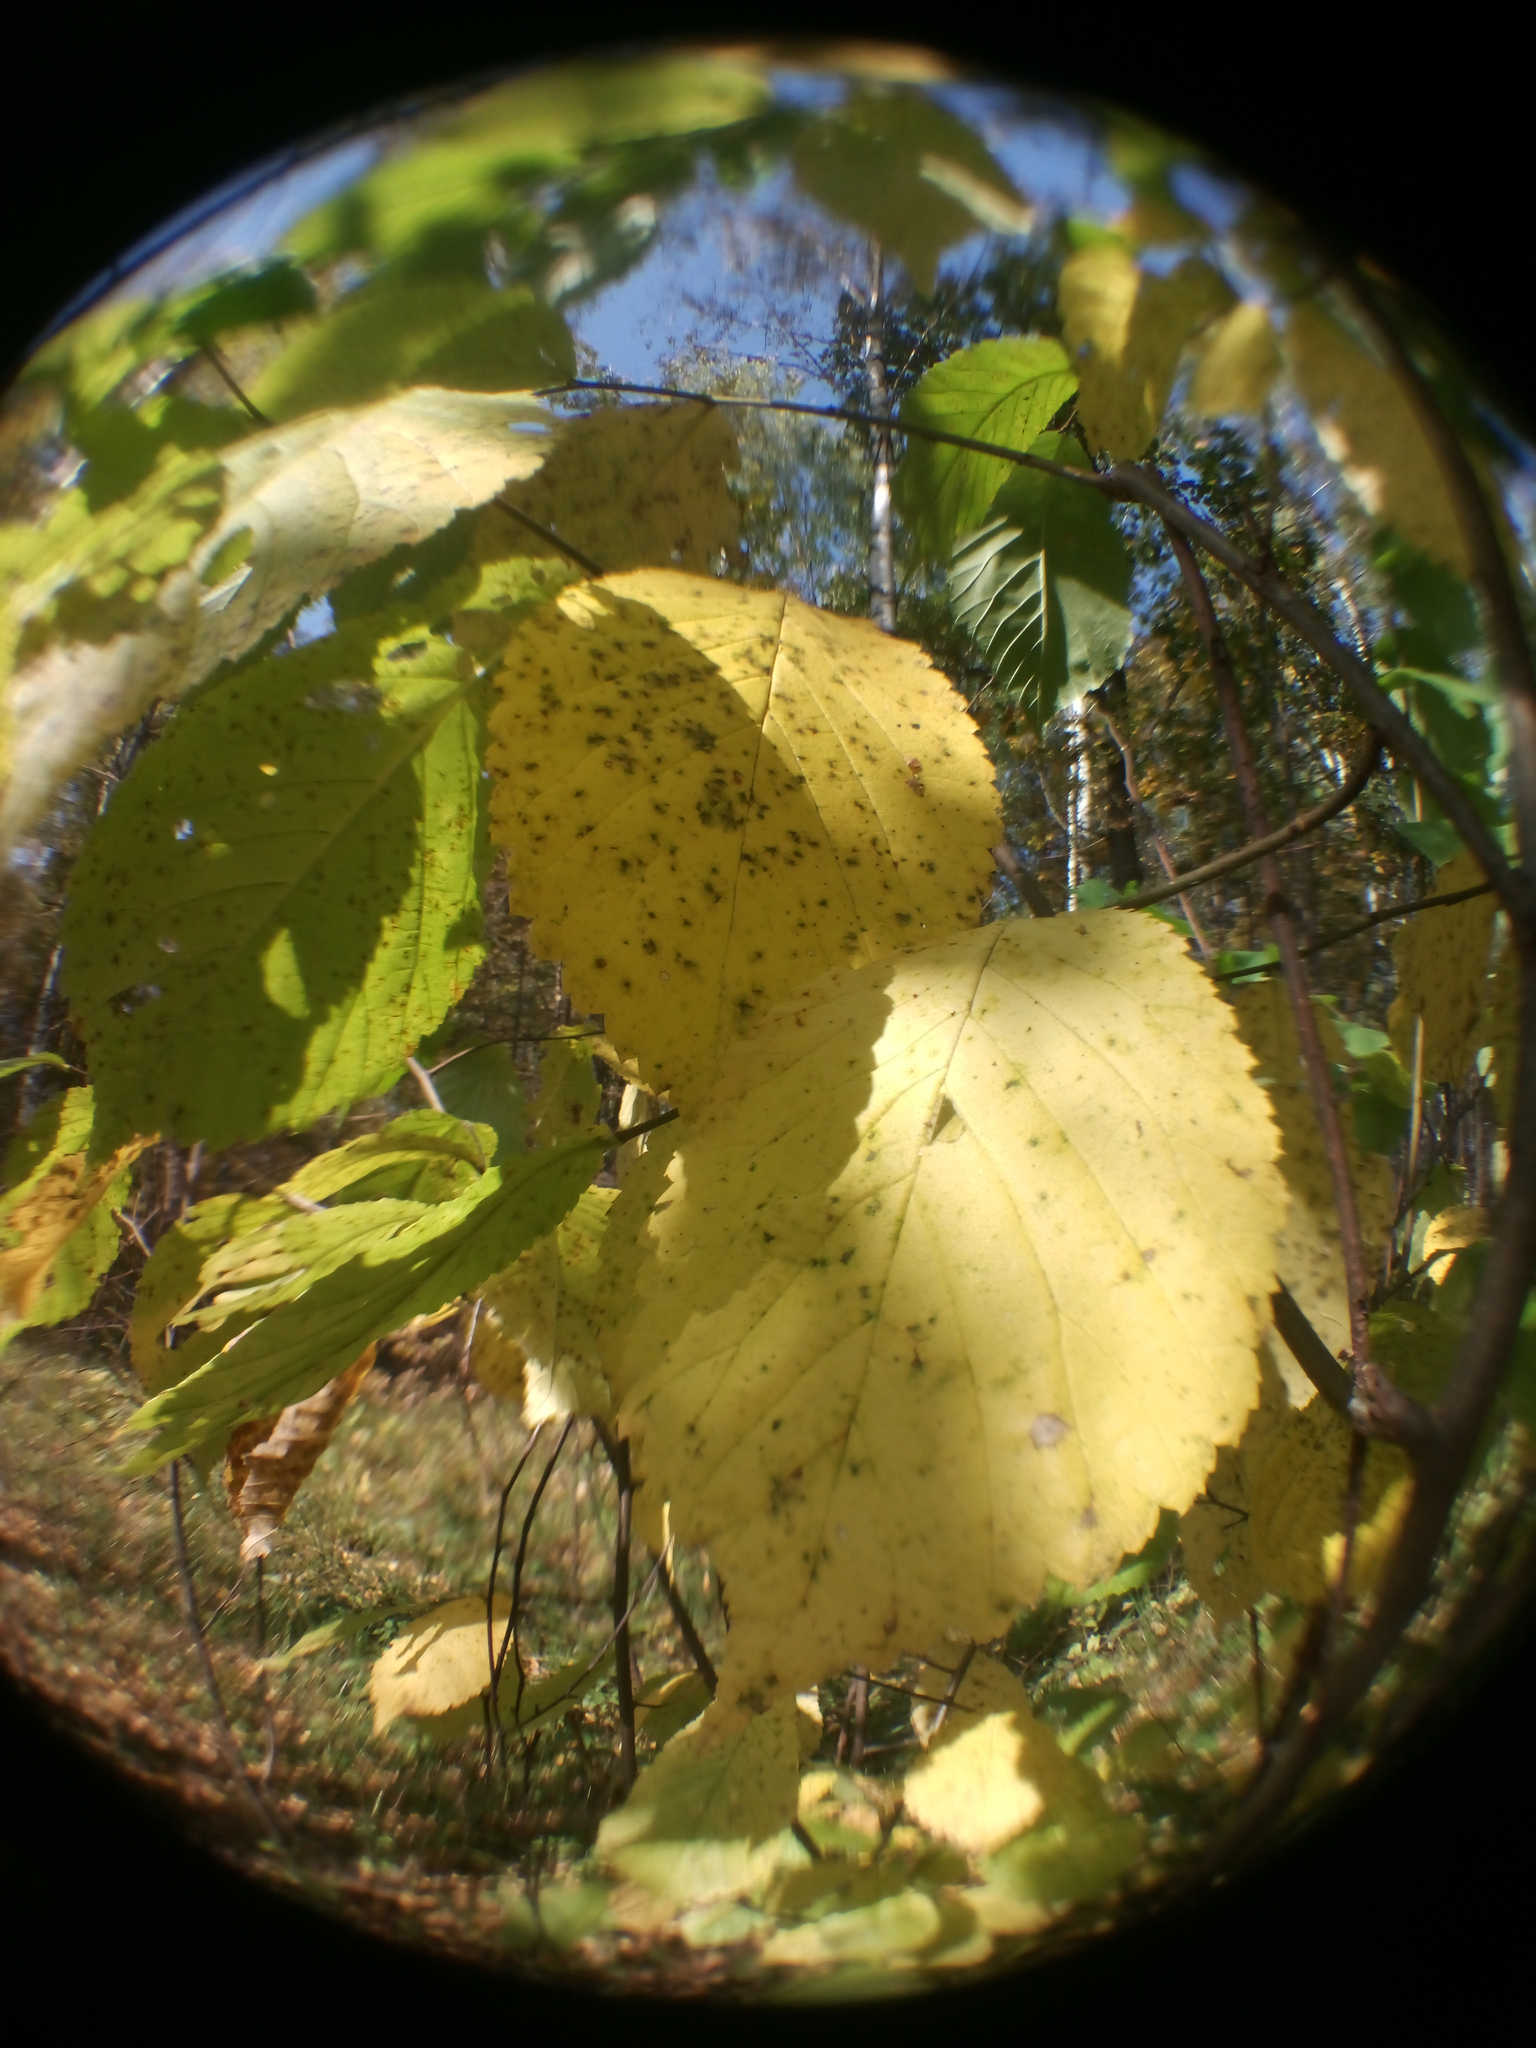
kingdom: Plantae
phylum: Tracheophyta
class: Magnoliopsida
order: Rosales
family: Ulmaceae
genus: Ulmus
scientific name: Ulmus glabra
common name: Wych elm
